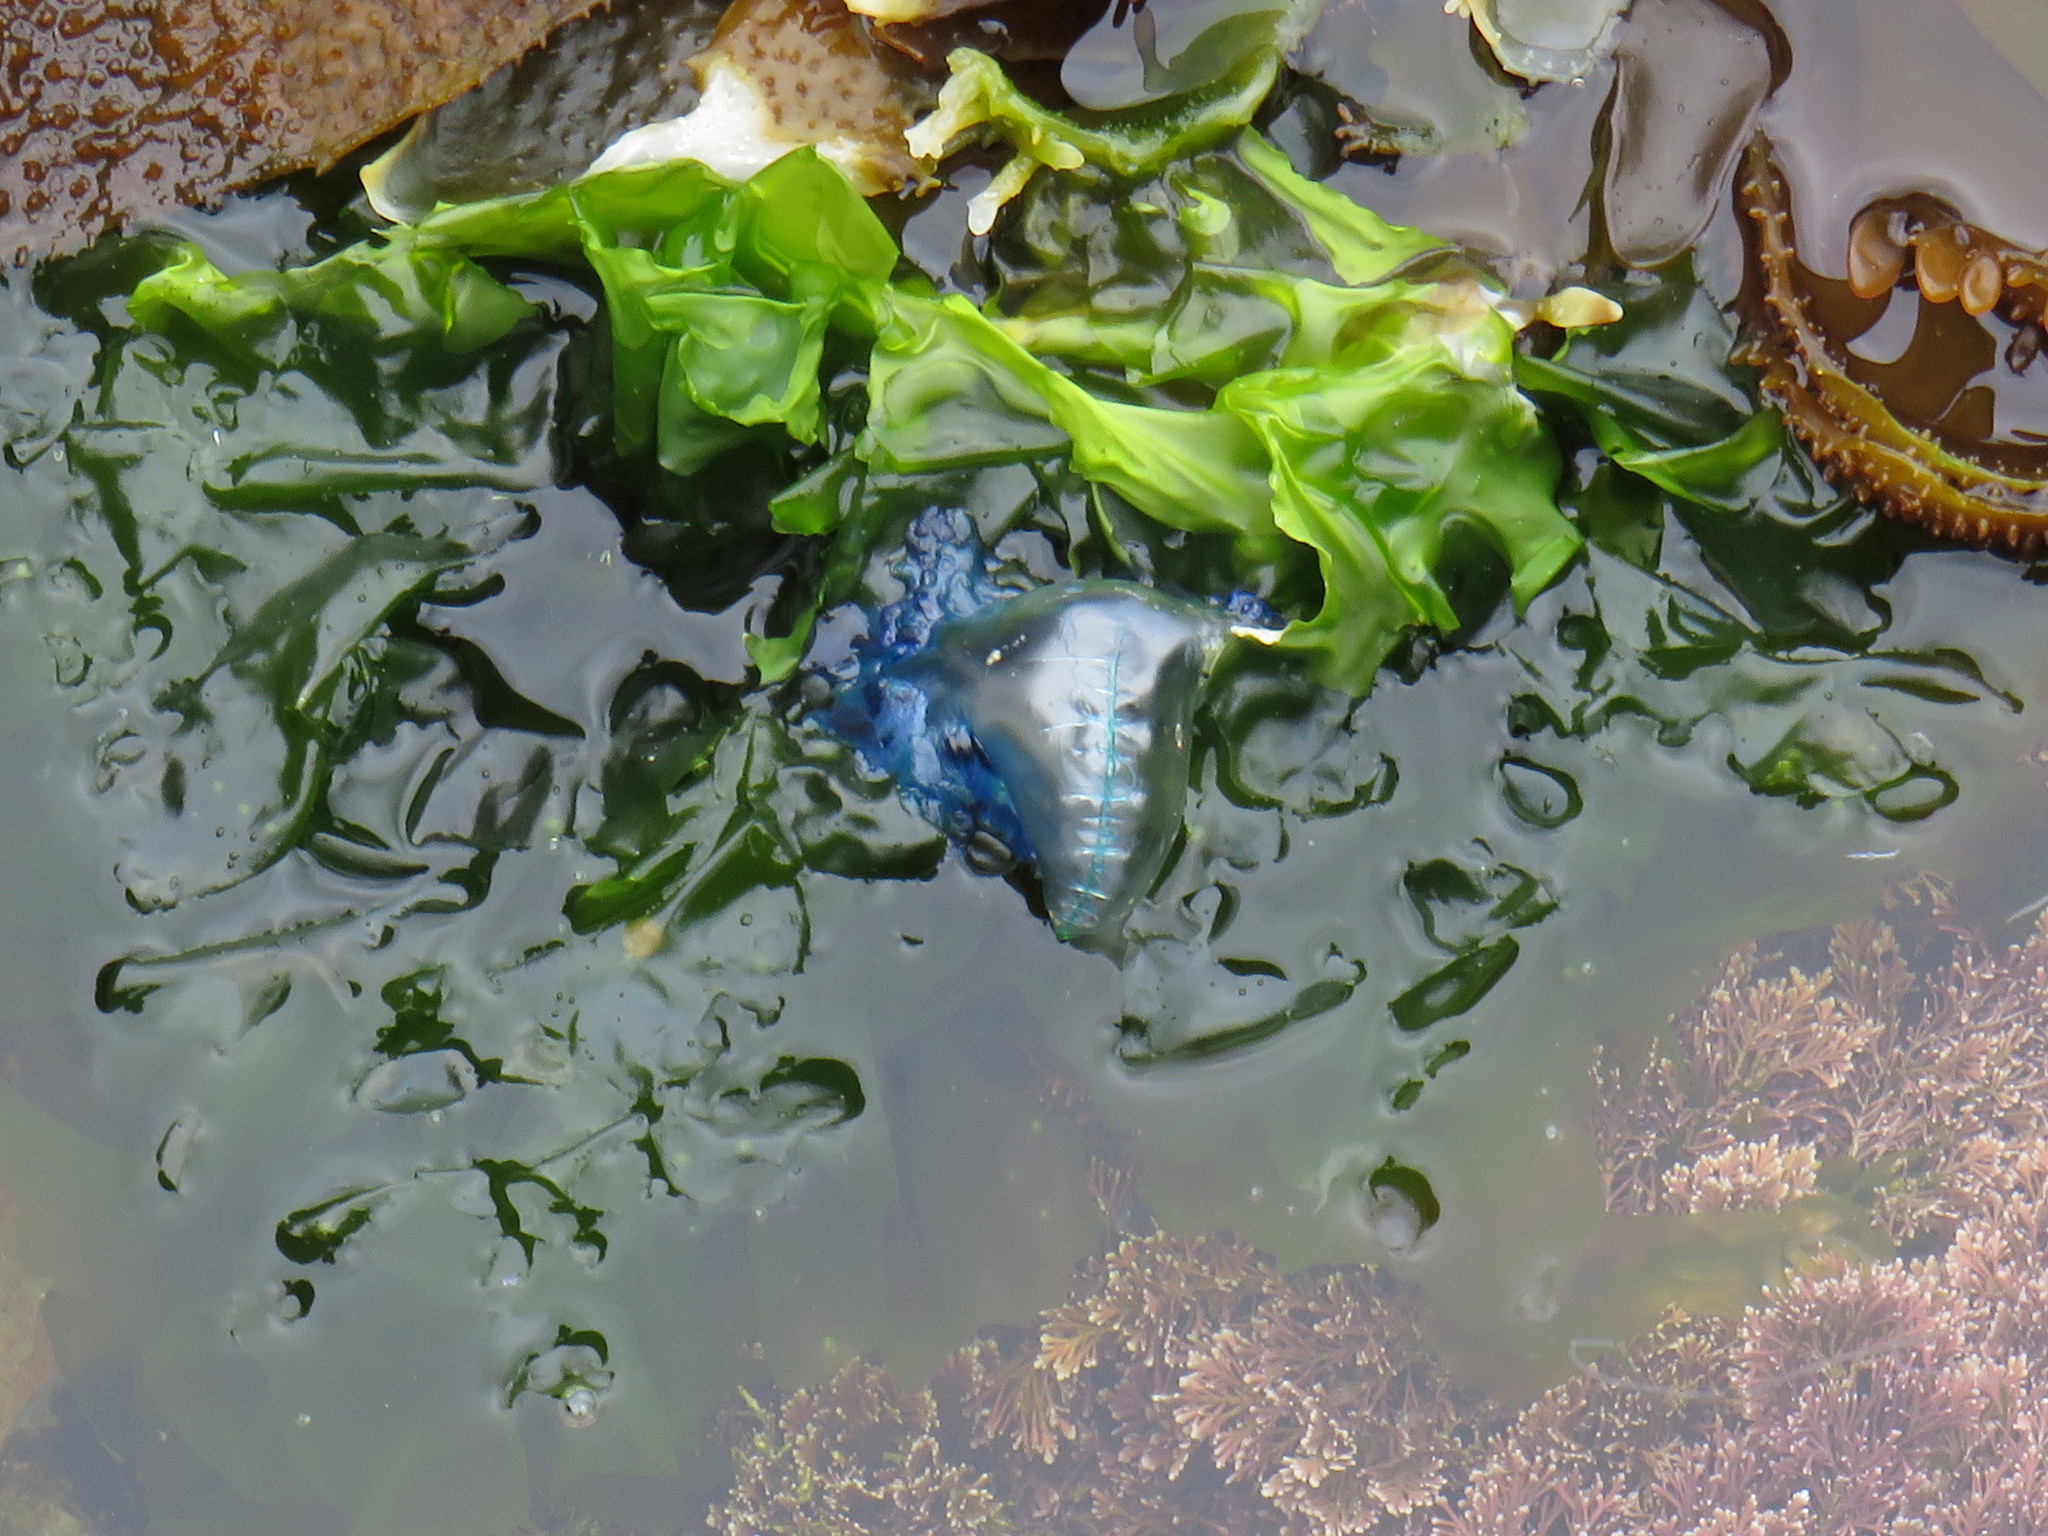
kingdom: Animalia
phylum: Cnidaria
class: Hydrozoa
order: Siphonophorae
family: Physaliidae
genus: Physalia
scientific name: Physalia physalis
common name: Portuguese man-of-war
